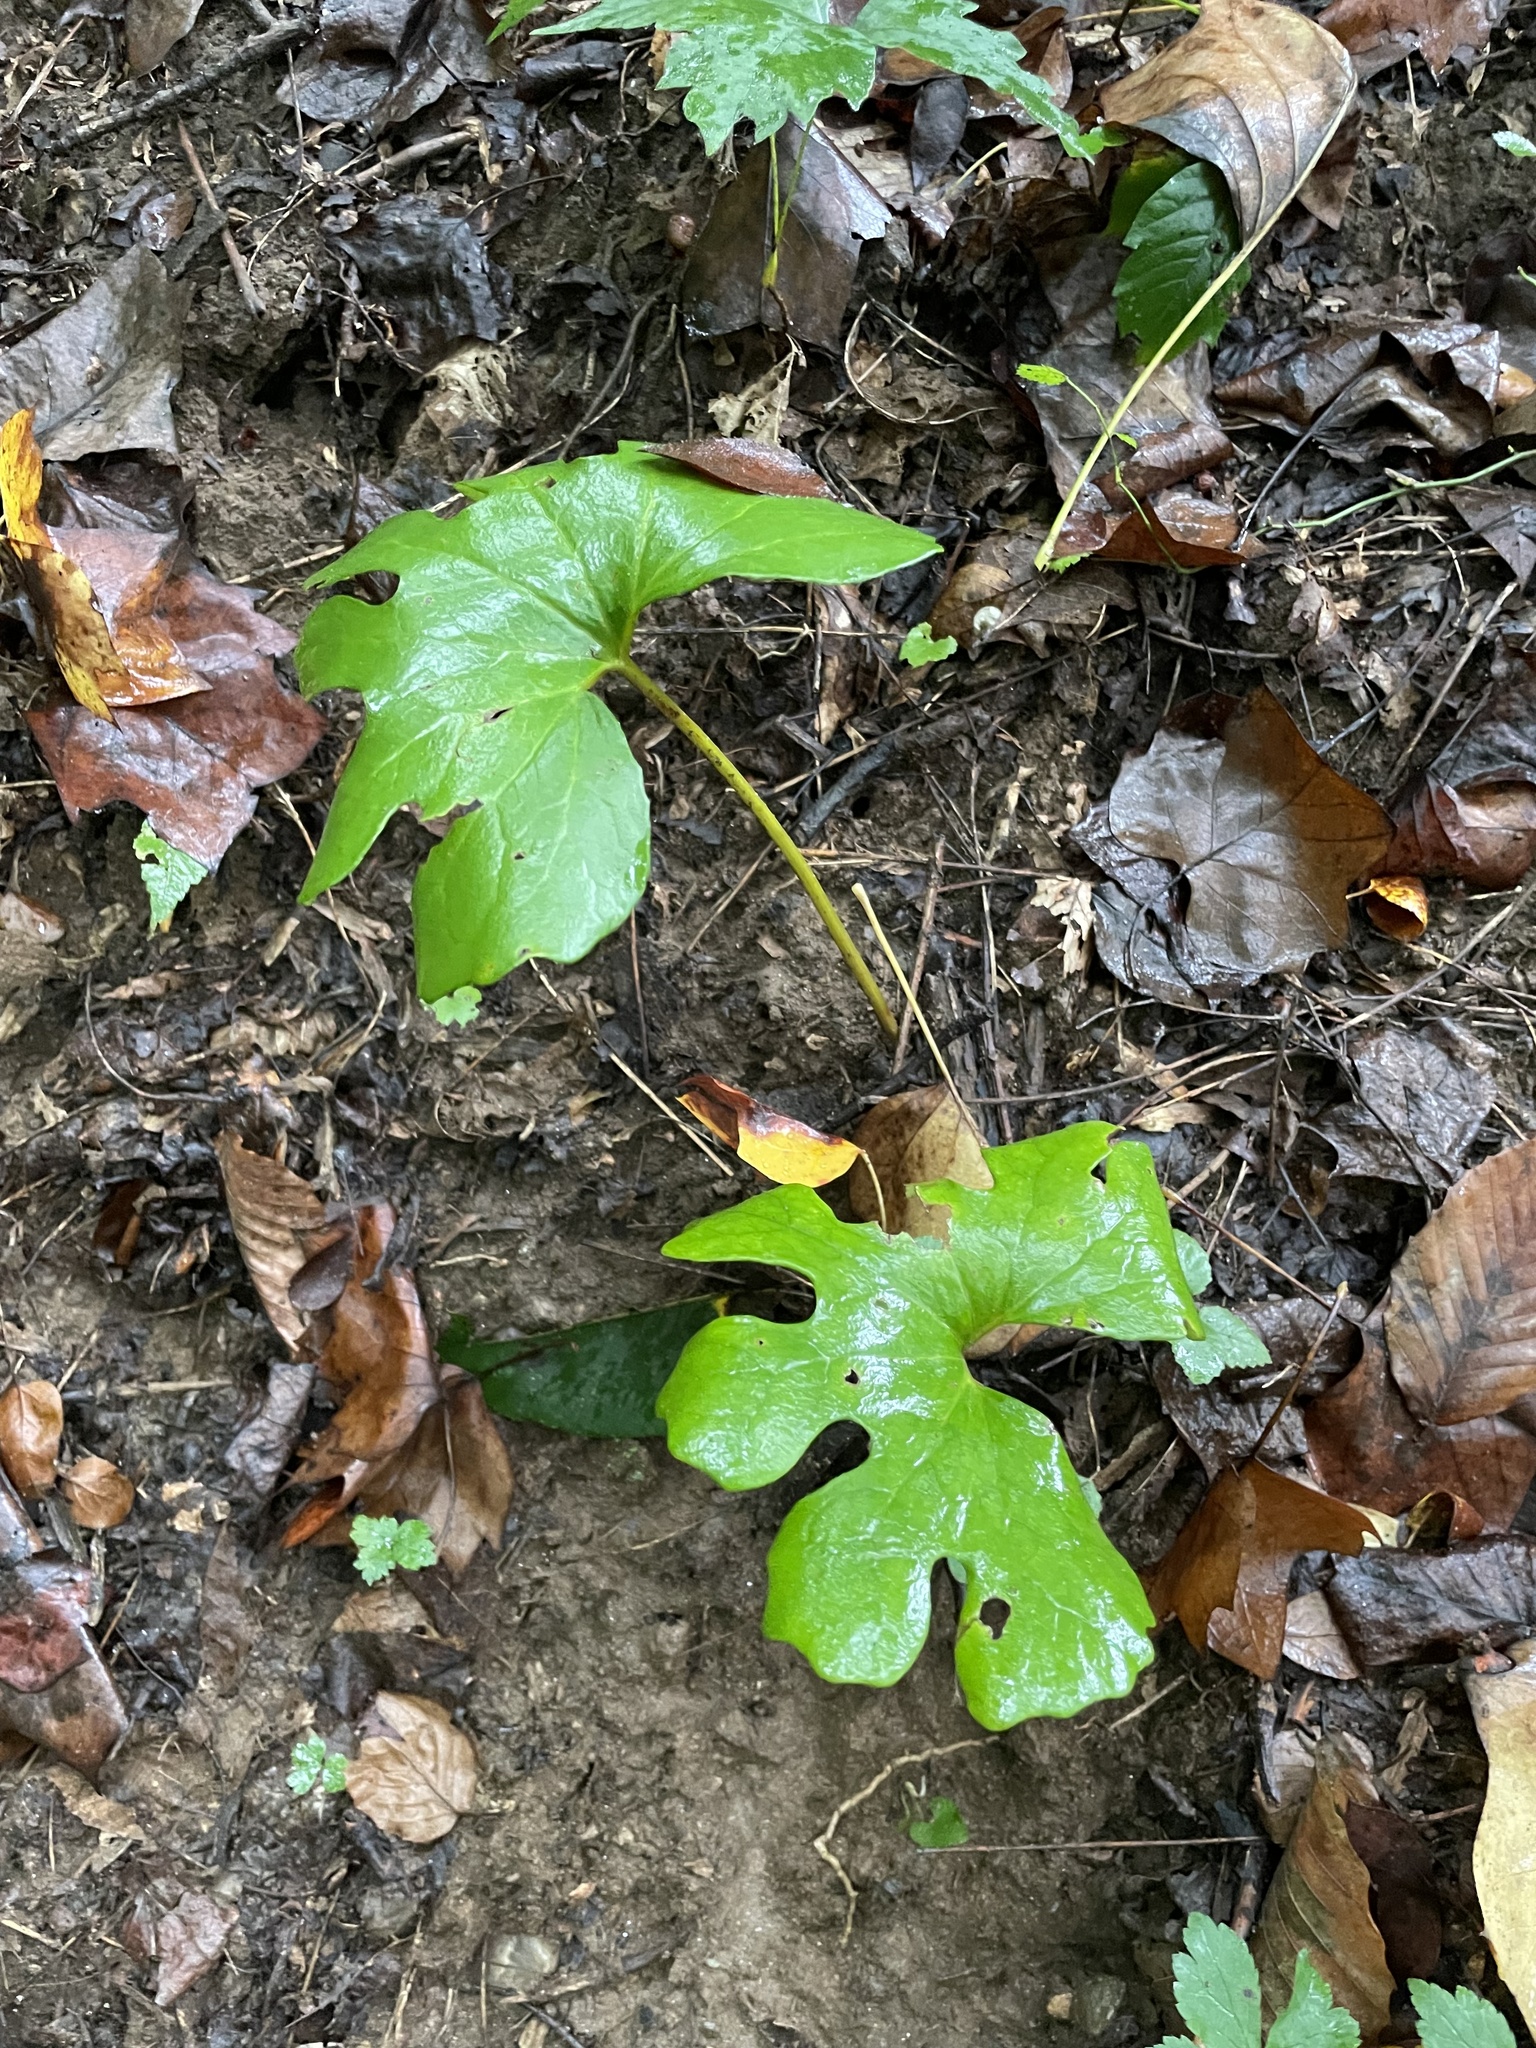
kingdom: Plantae
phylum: Tracheophyta
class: Magnoliopsida
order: Ranunculales
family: Papaveraceae
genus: Sanguinaria
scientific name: Sanguinaria canadensis
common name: Bloodroot
